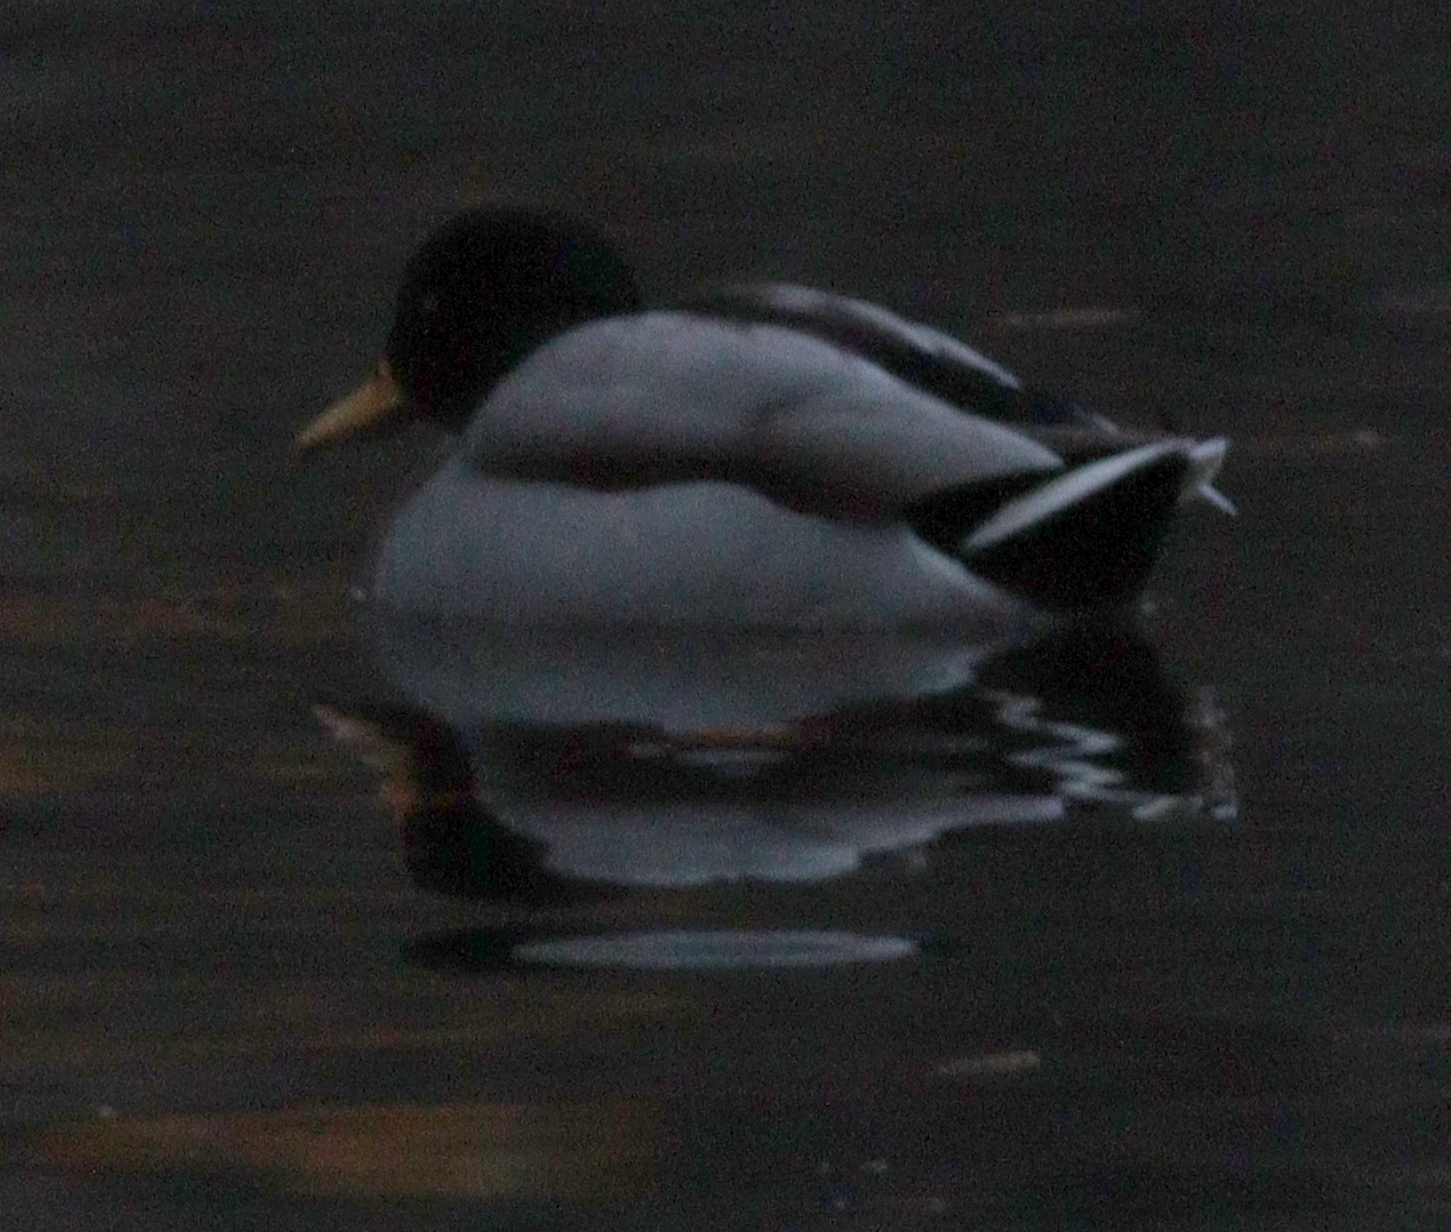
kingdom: Animalia
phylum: Chordata
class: Aves
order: Anseriformes
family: Anatidae
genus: Anas
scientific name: Anas platyrhynchos
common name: Mallard
